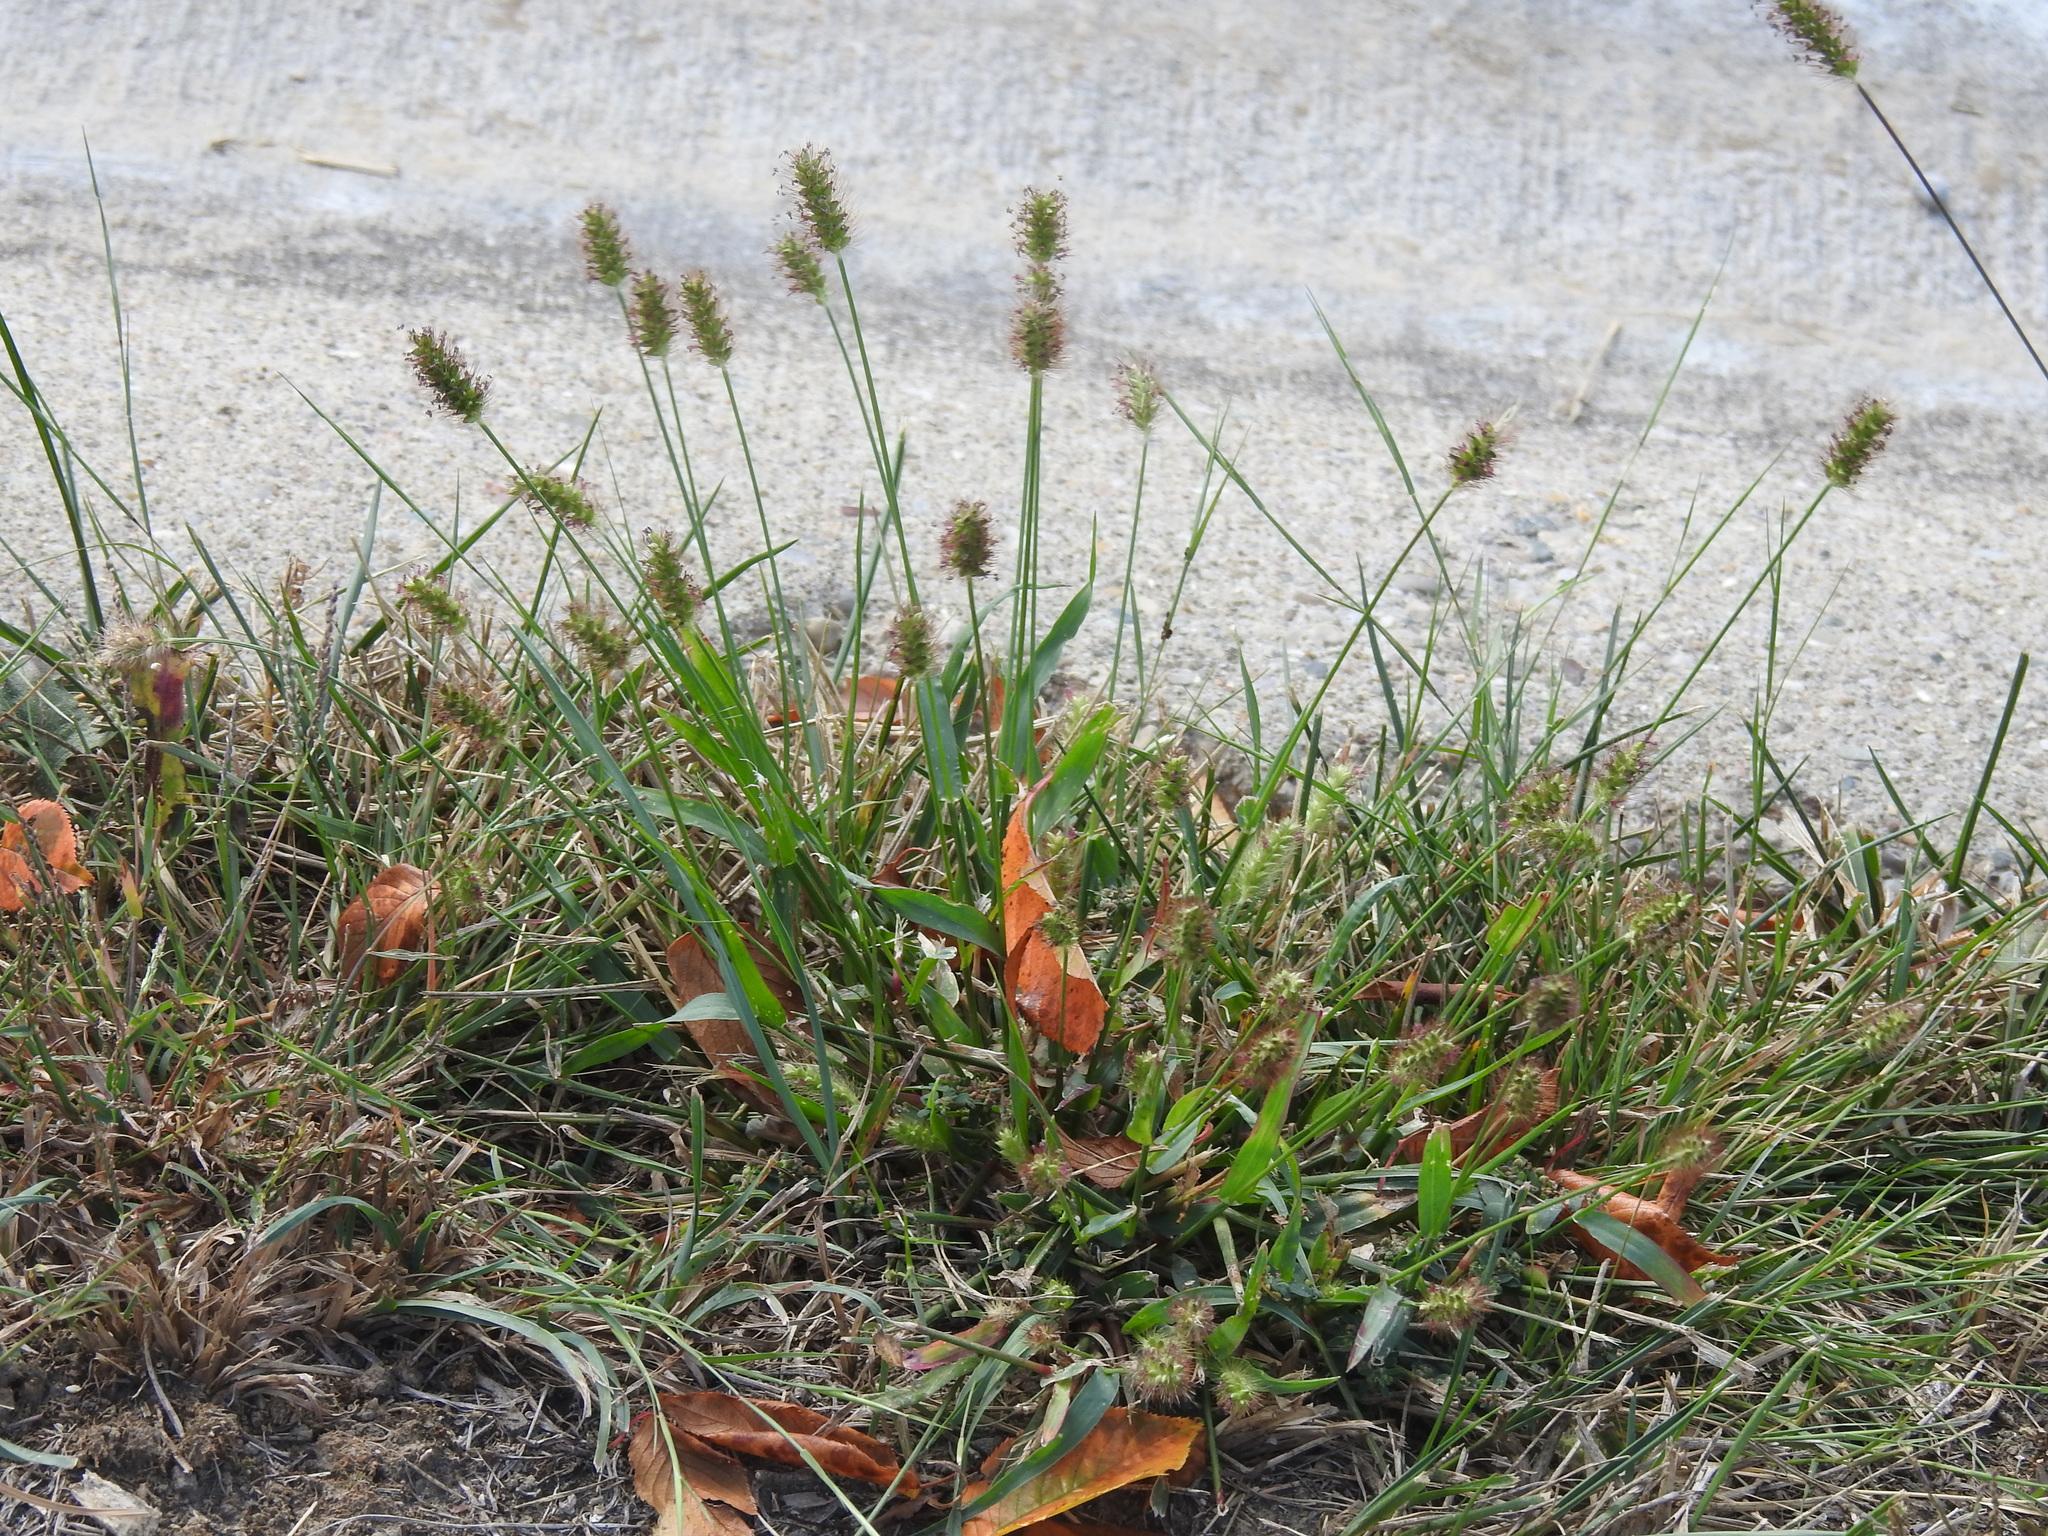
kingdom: Plantae
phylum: Tracheophyta
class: Liliopsida
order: Poales
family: Poaceae
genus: Setaria
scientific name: Setaria pumila
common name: Yellow bristle-grass
